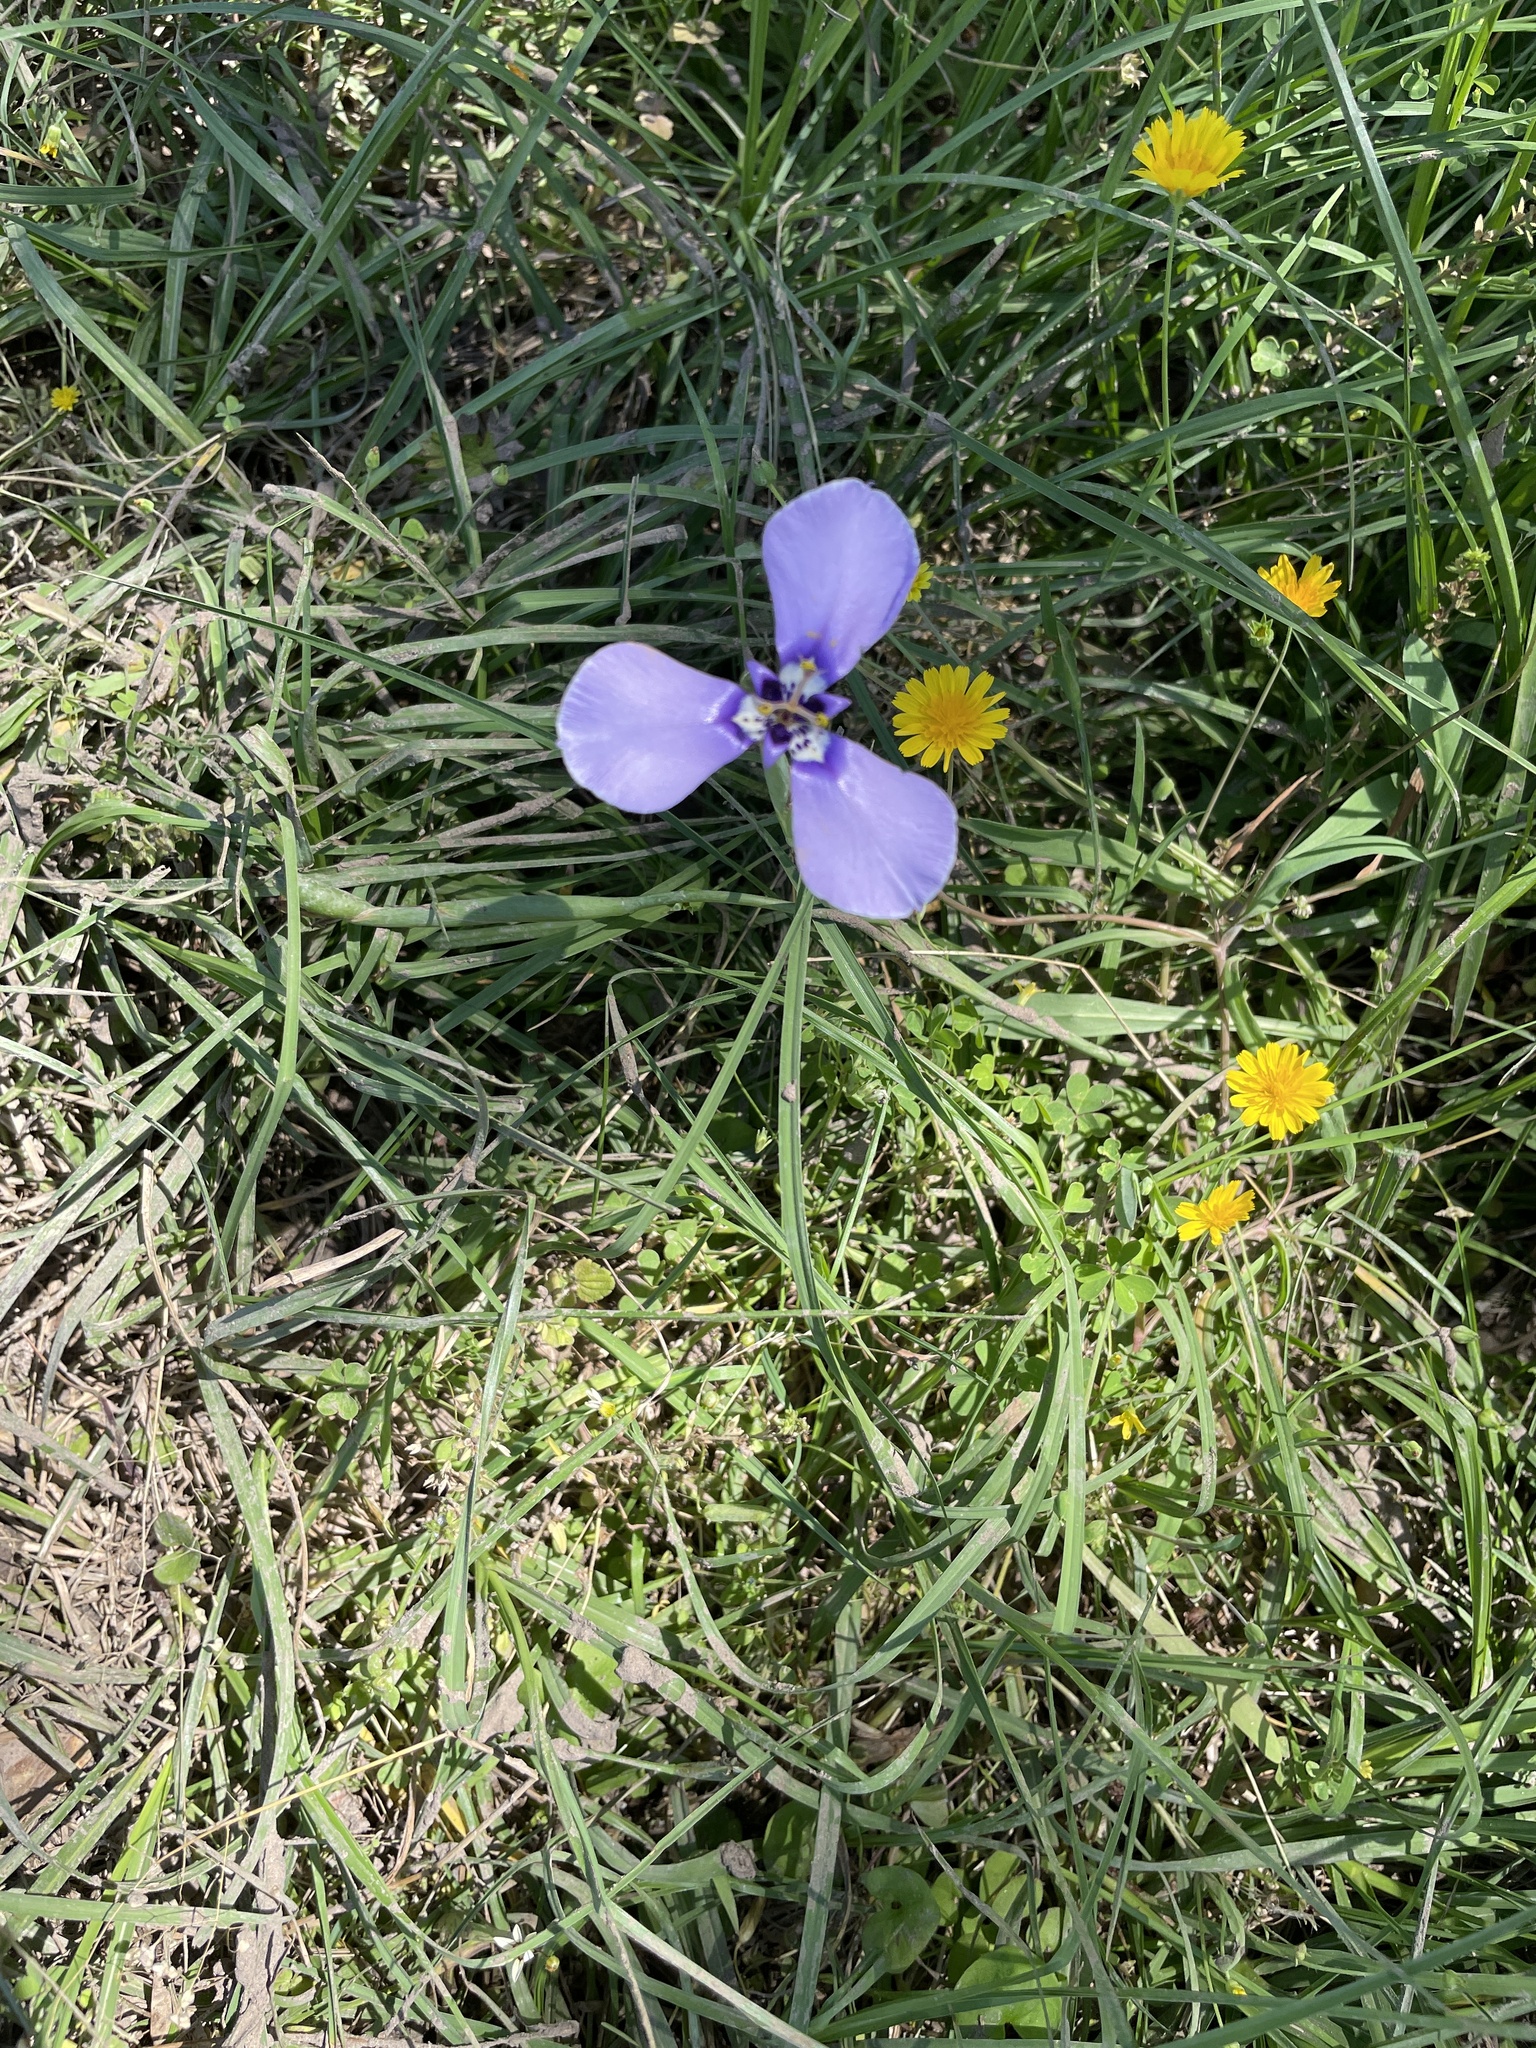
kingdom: Plantae
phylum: Tracheophyta
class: Liliopsida
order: Asparagales
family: Iridaceae
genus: Herbertia
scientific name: Herbertia lahue
